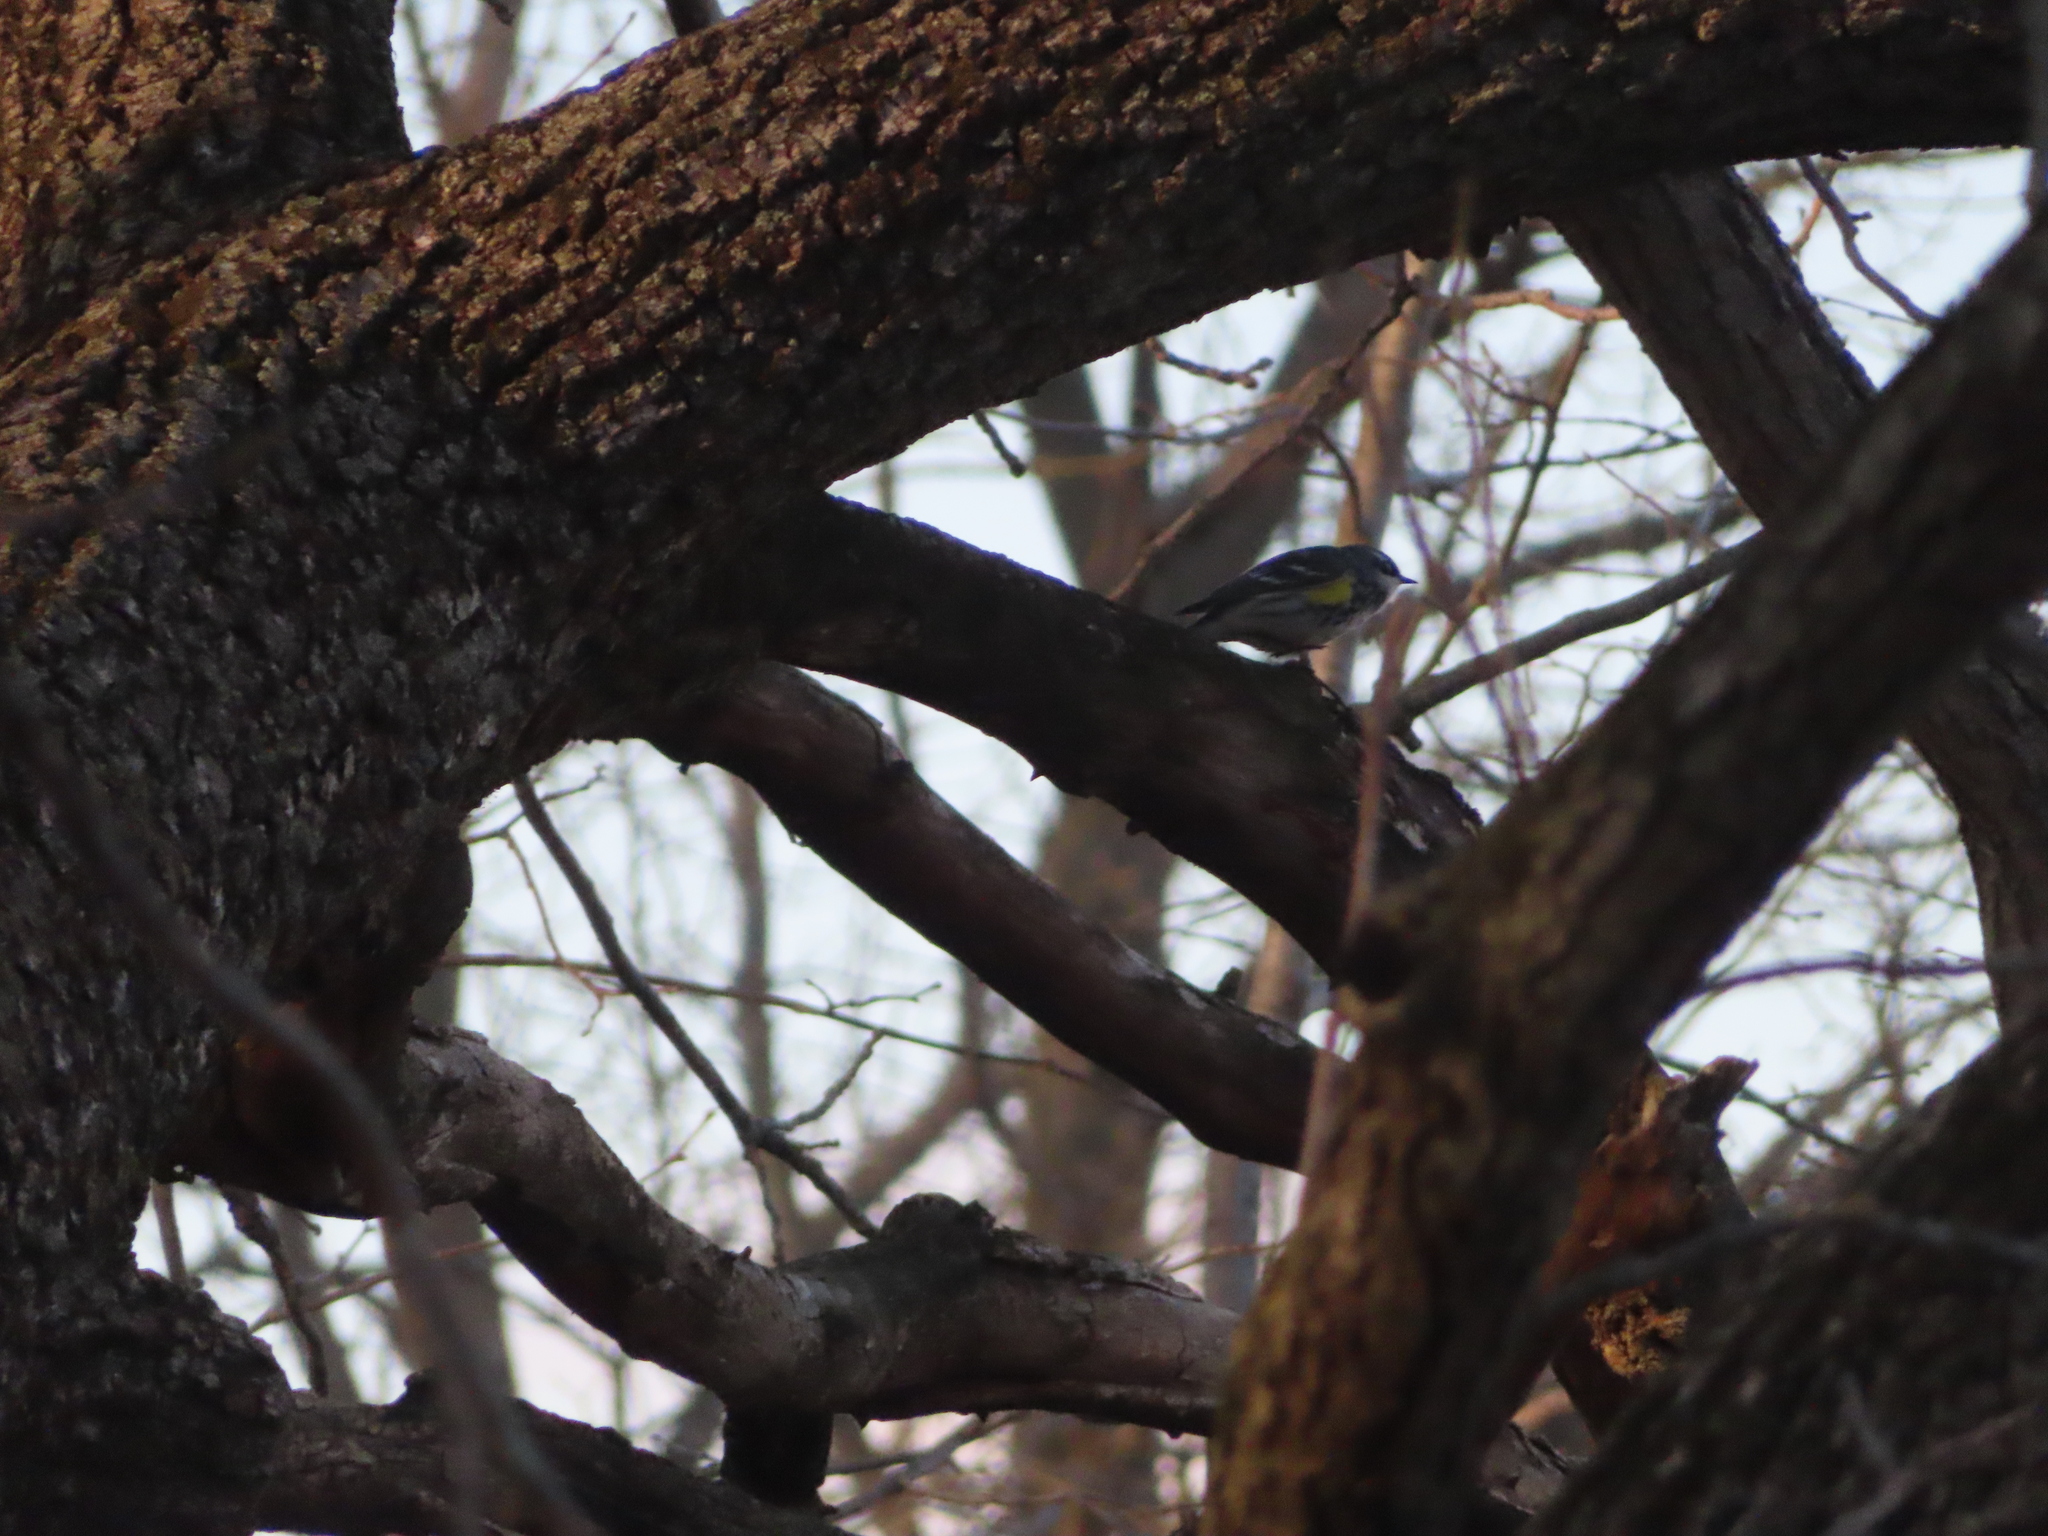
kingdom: Animalia
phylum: Chordata
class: Aves
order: Passeriformes
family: Parulidae
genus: Setophaga
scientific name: Setophaga coronata
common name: Myrtle warbler
